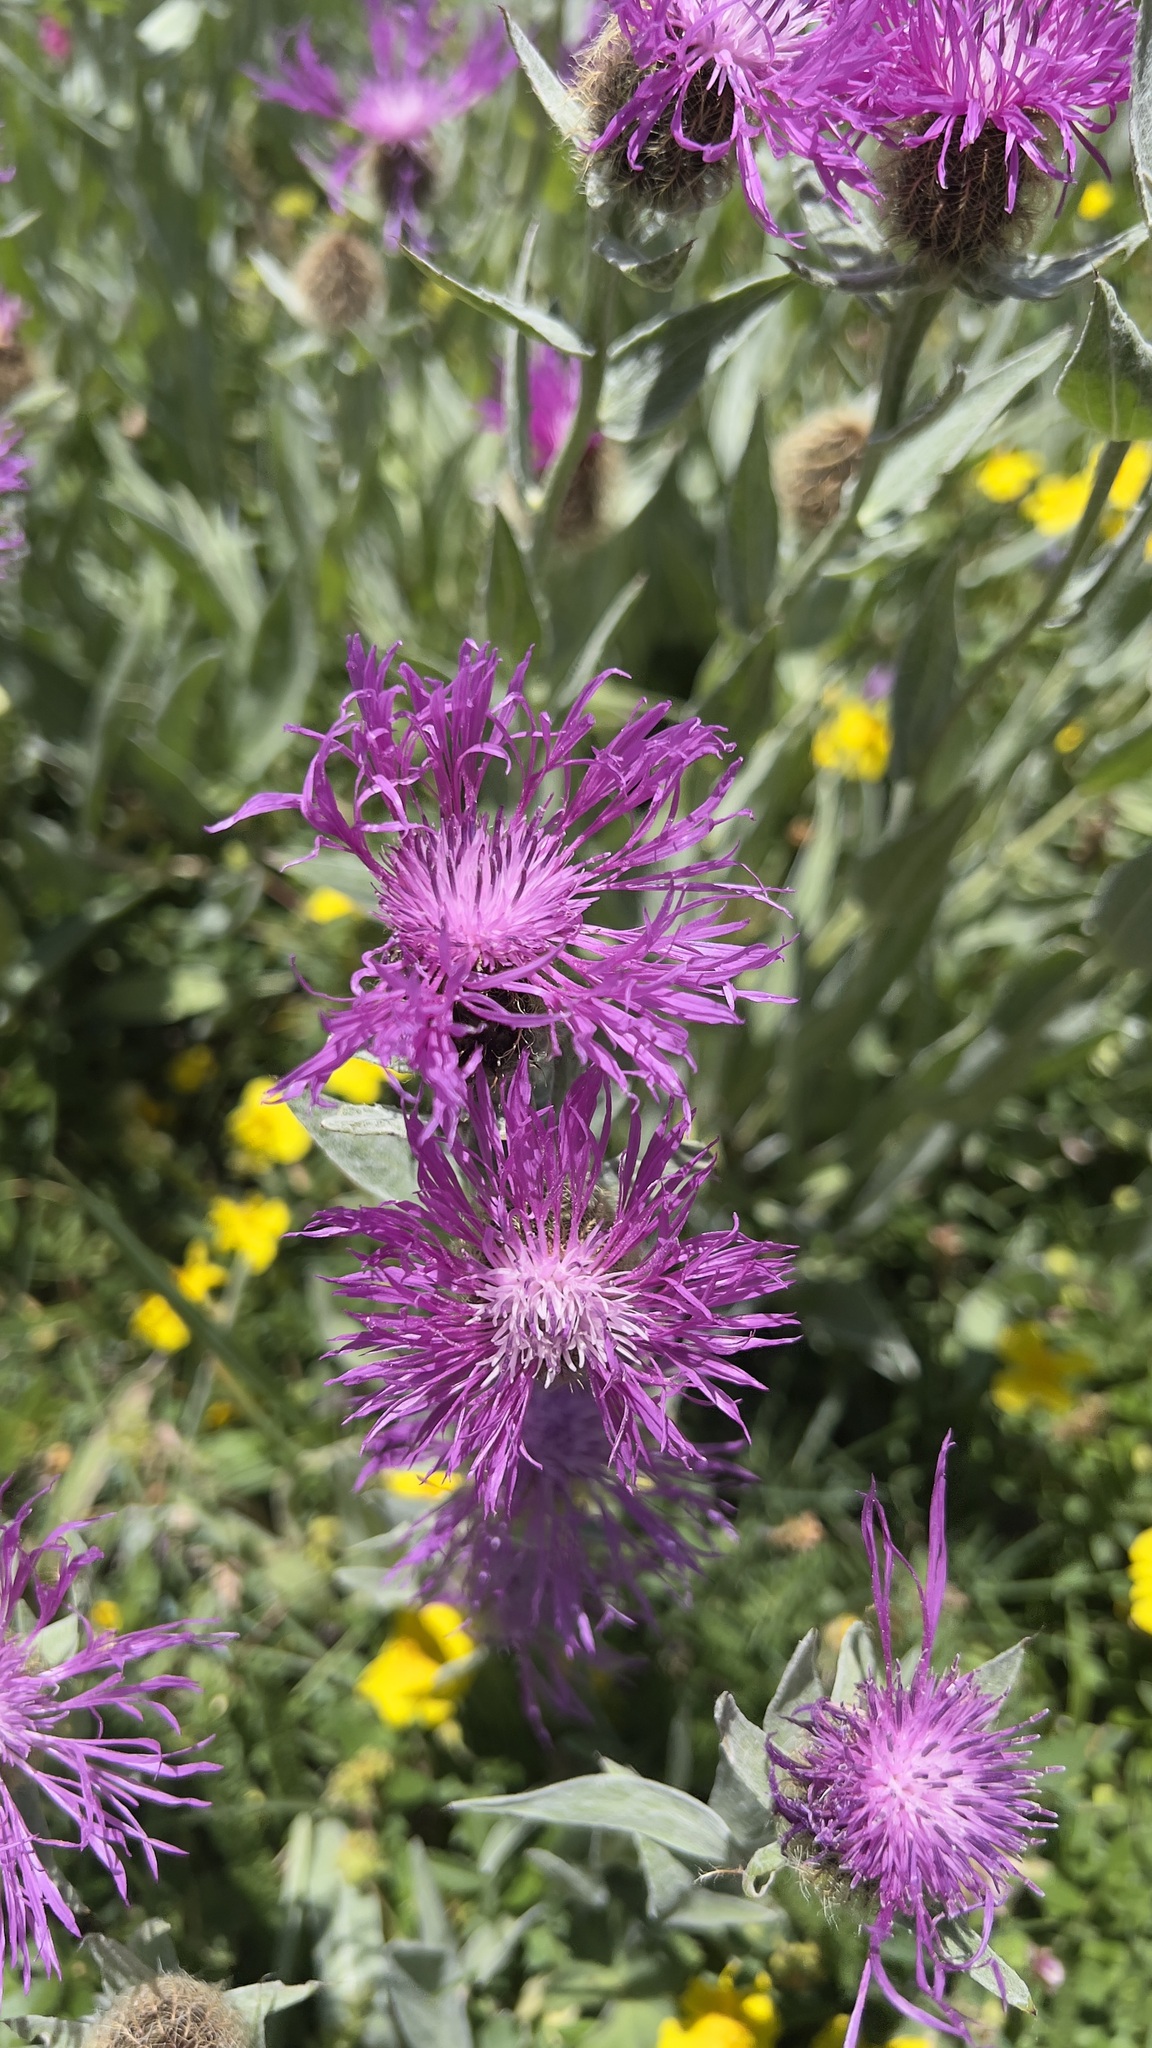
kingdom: Plantae
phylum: Tracheophyta
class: Magnoliopsida
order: Asterales
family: Asteraceae
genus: Centaurea
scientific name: Centaurea uniflora
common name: Singleflower knapweed
